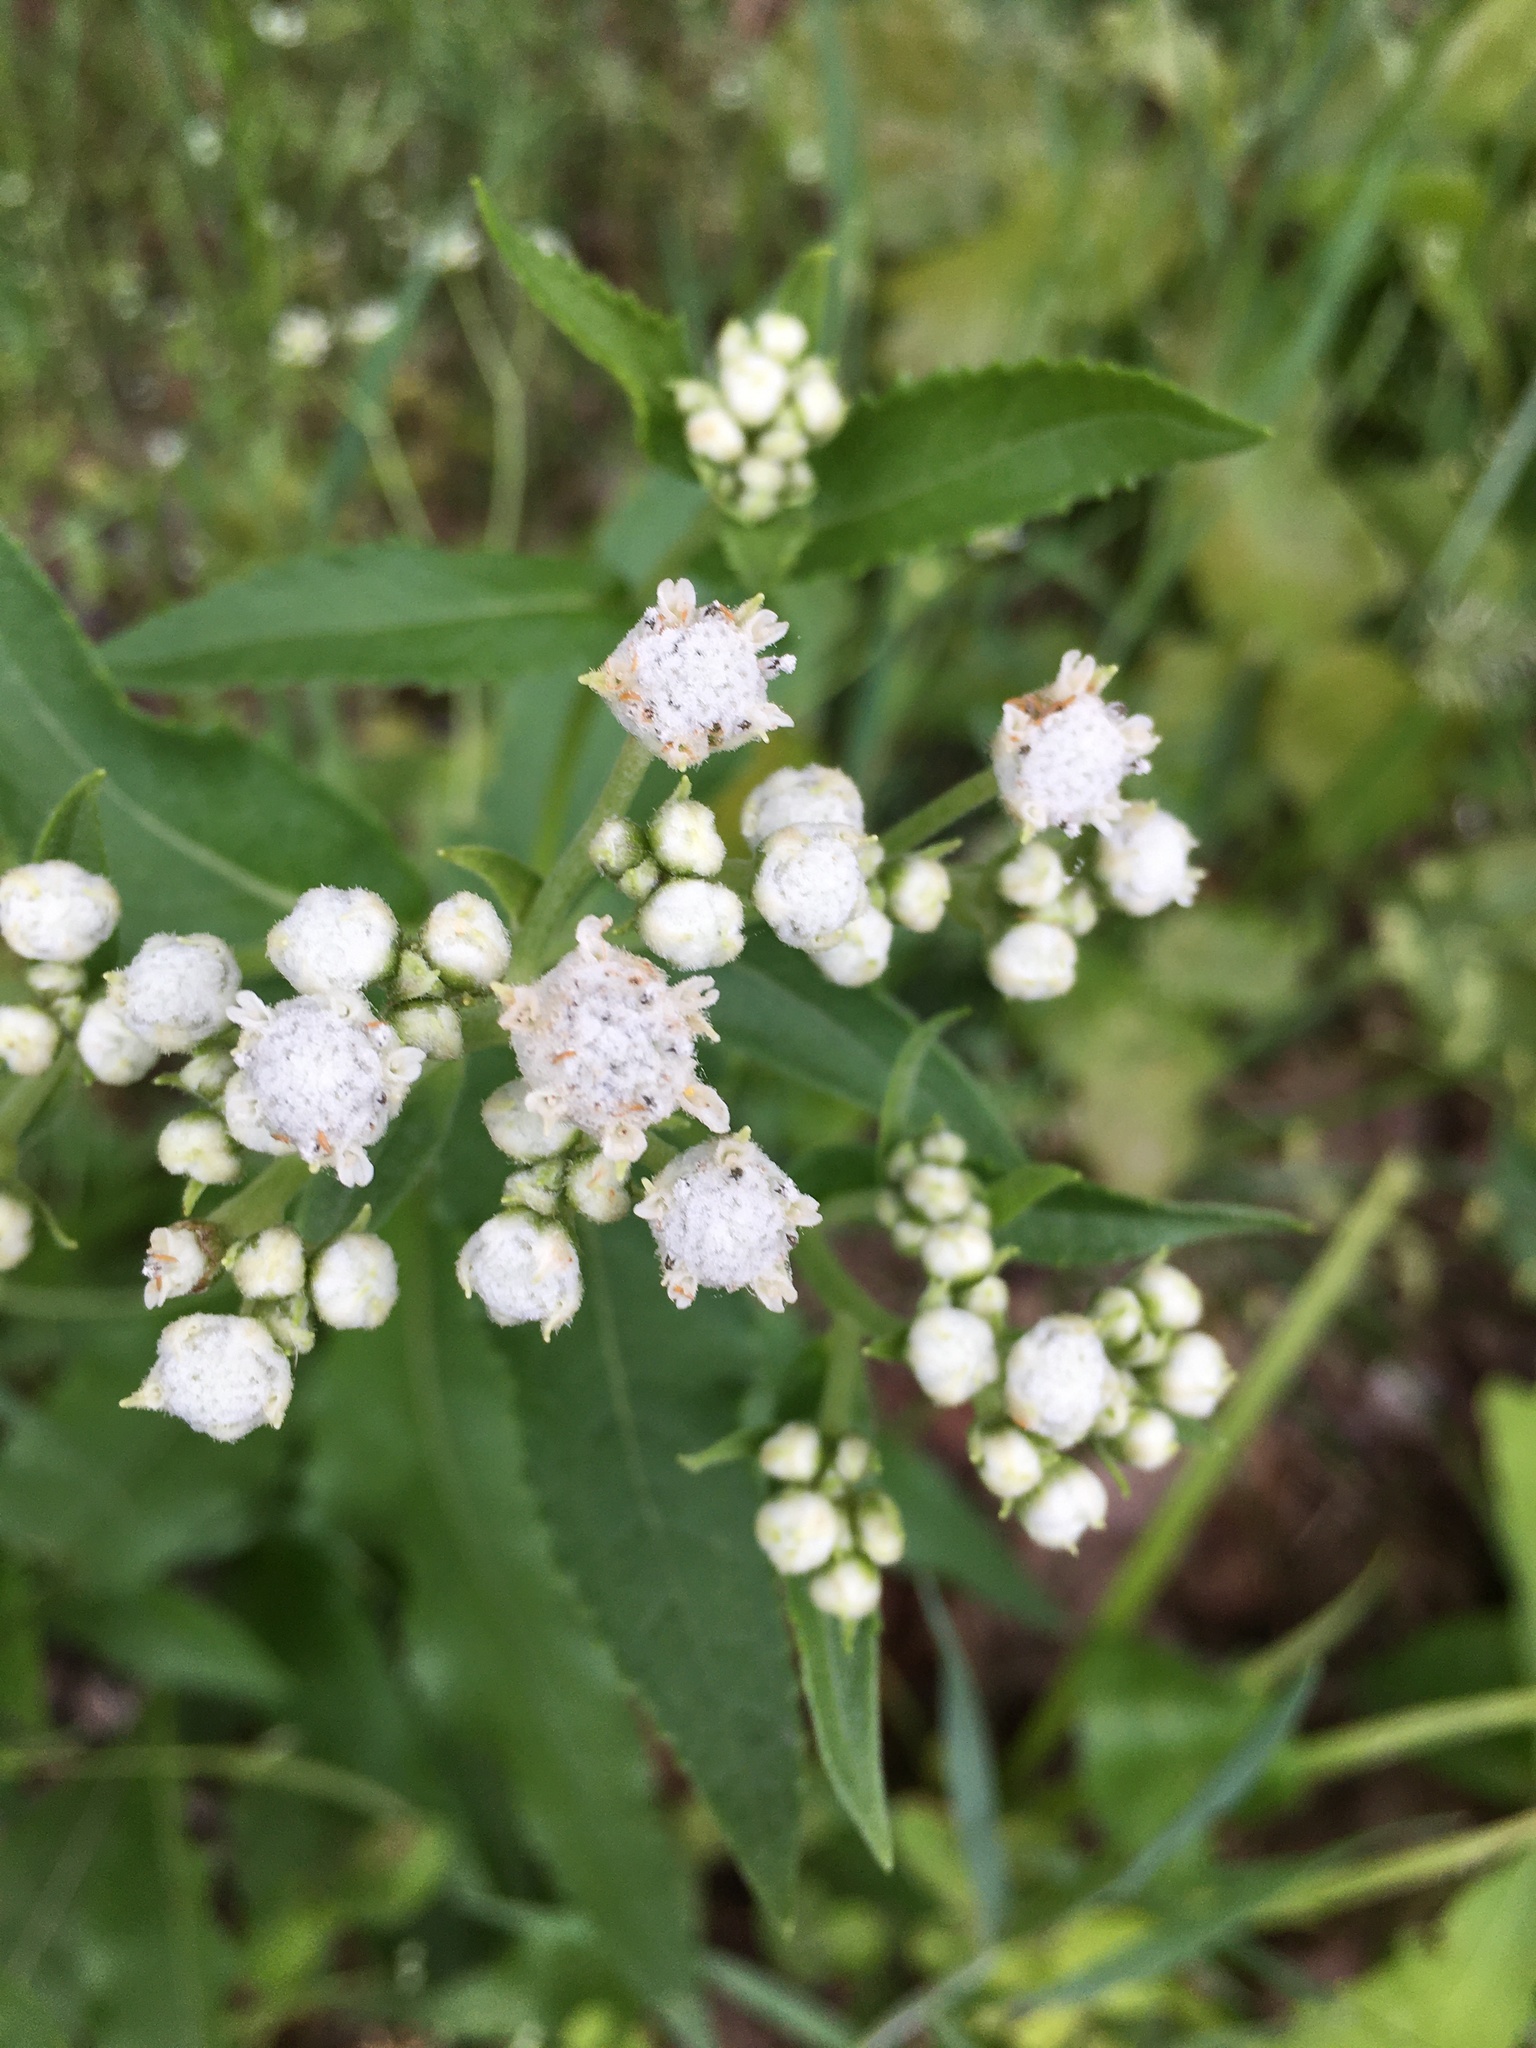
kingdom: Plantae
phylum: Tracheophyta
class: Magnoliopsida
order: Asterales
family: Asteraceae
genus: Parthenium
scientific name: Parthenium integrifolium
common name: American feverfew
